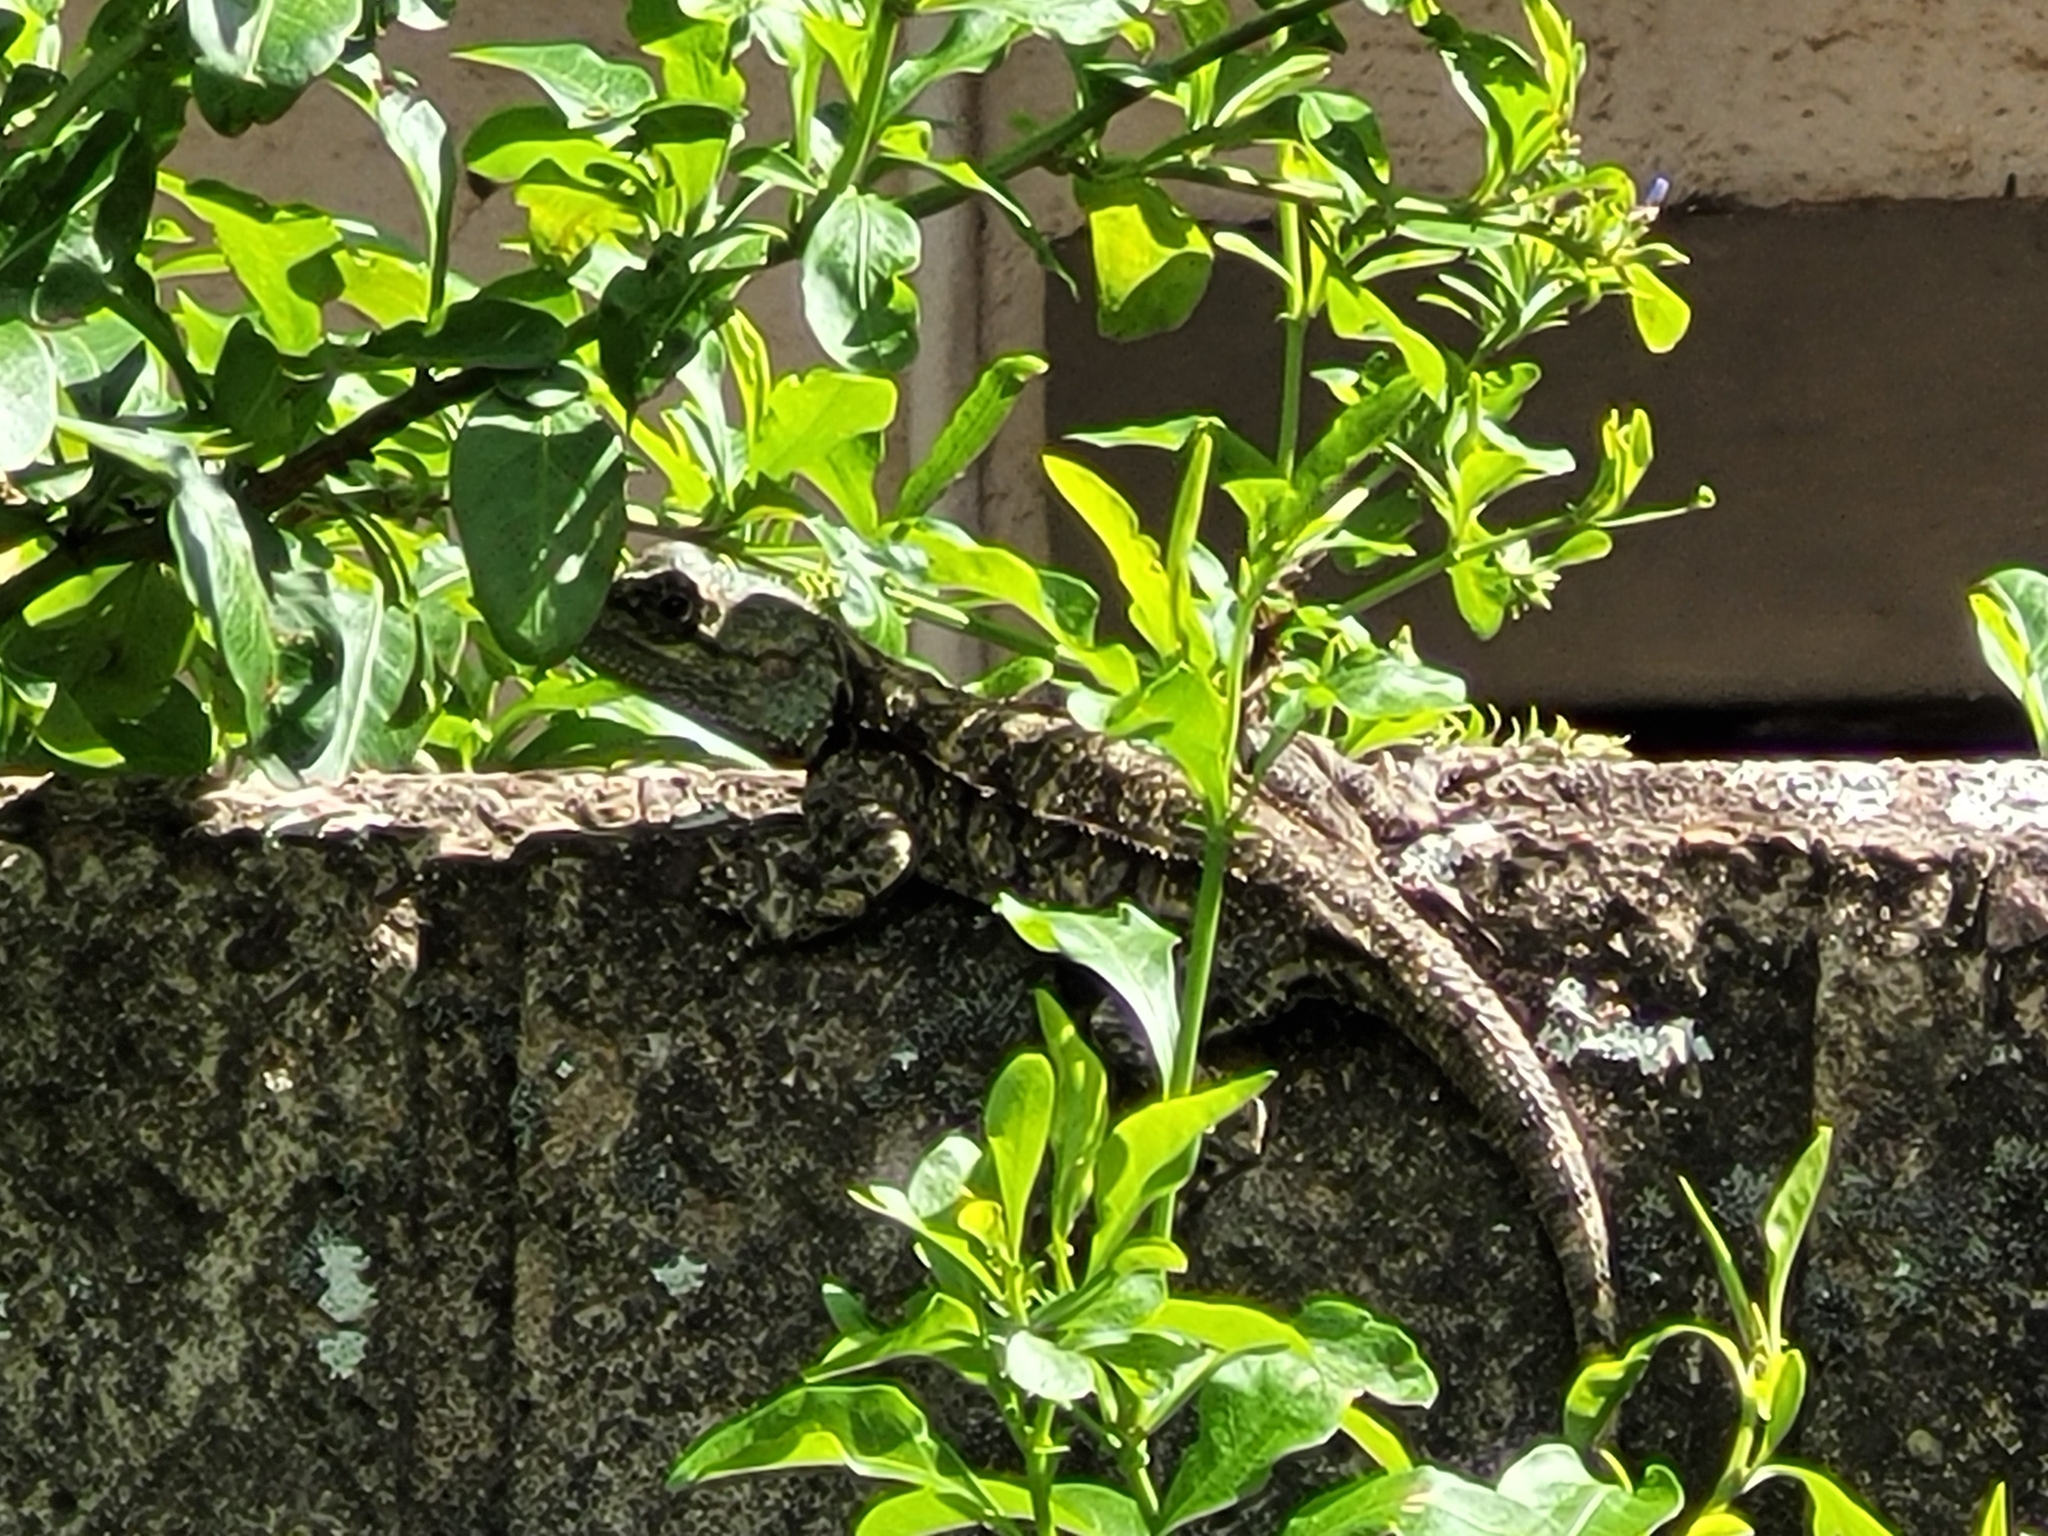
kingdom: Animalia
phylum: Chordata
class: Squamata
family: Agamidae
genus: Acanthocercus
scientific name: Acanthocercus atricollis
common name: Southern tree agama
